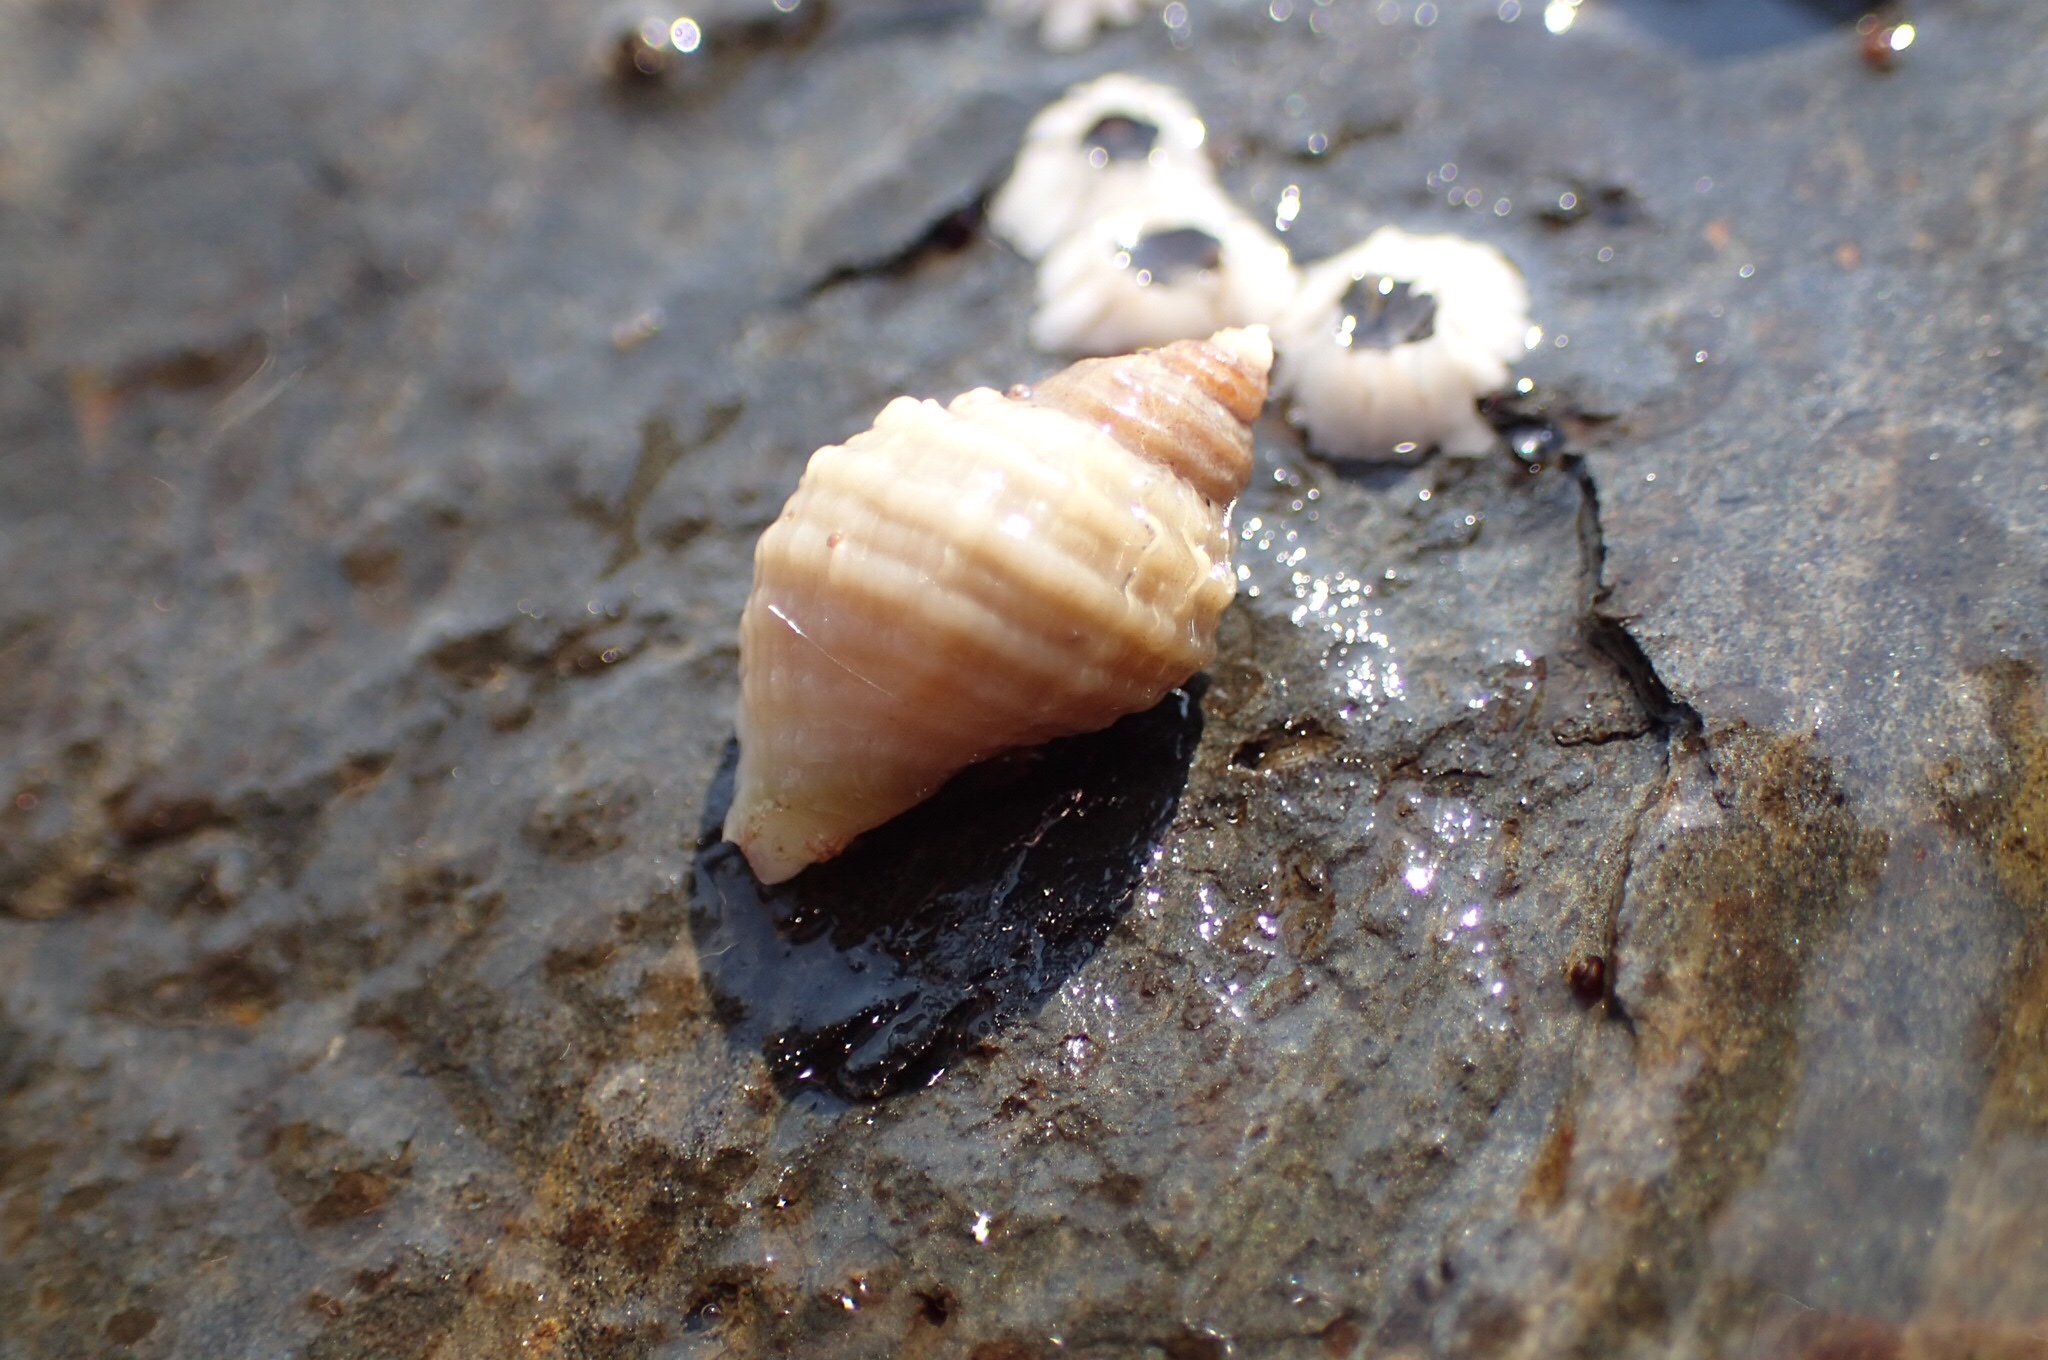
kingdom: Animalia
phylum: Mollusca
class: Gastropoda
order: Neogastropoda
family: Muricidae
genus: Nucella
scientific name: Nucella lapillus
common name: Dog whelk
